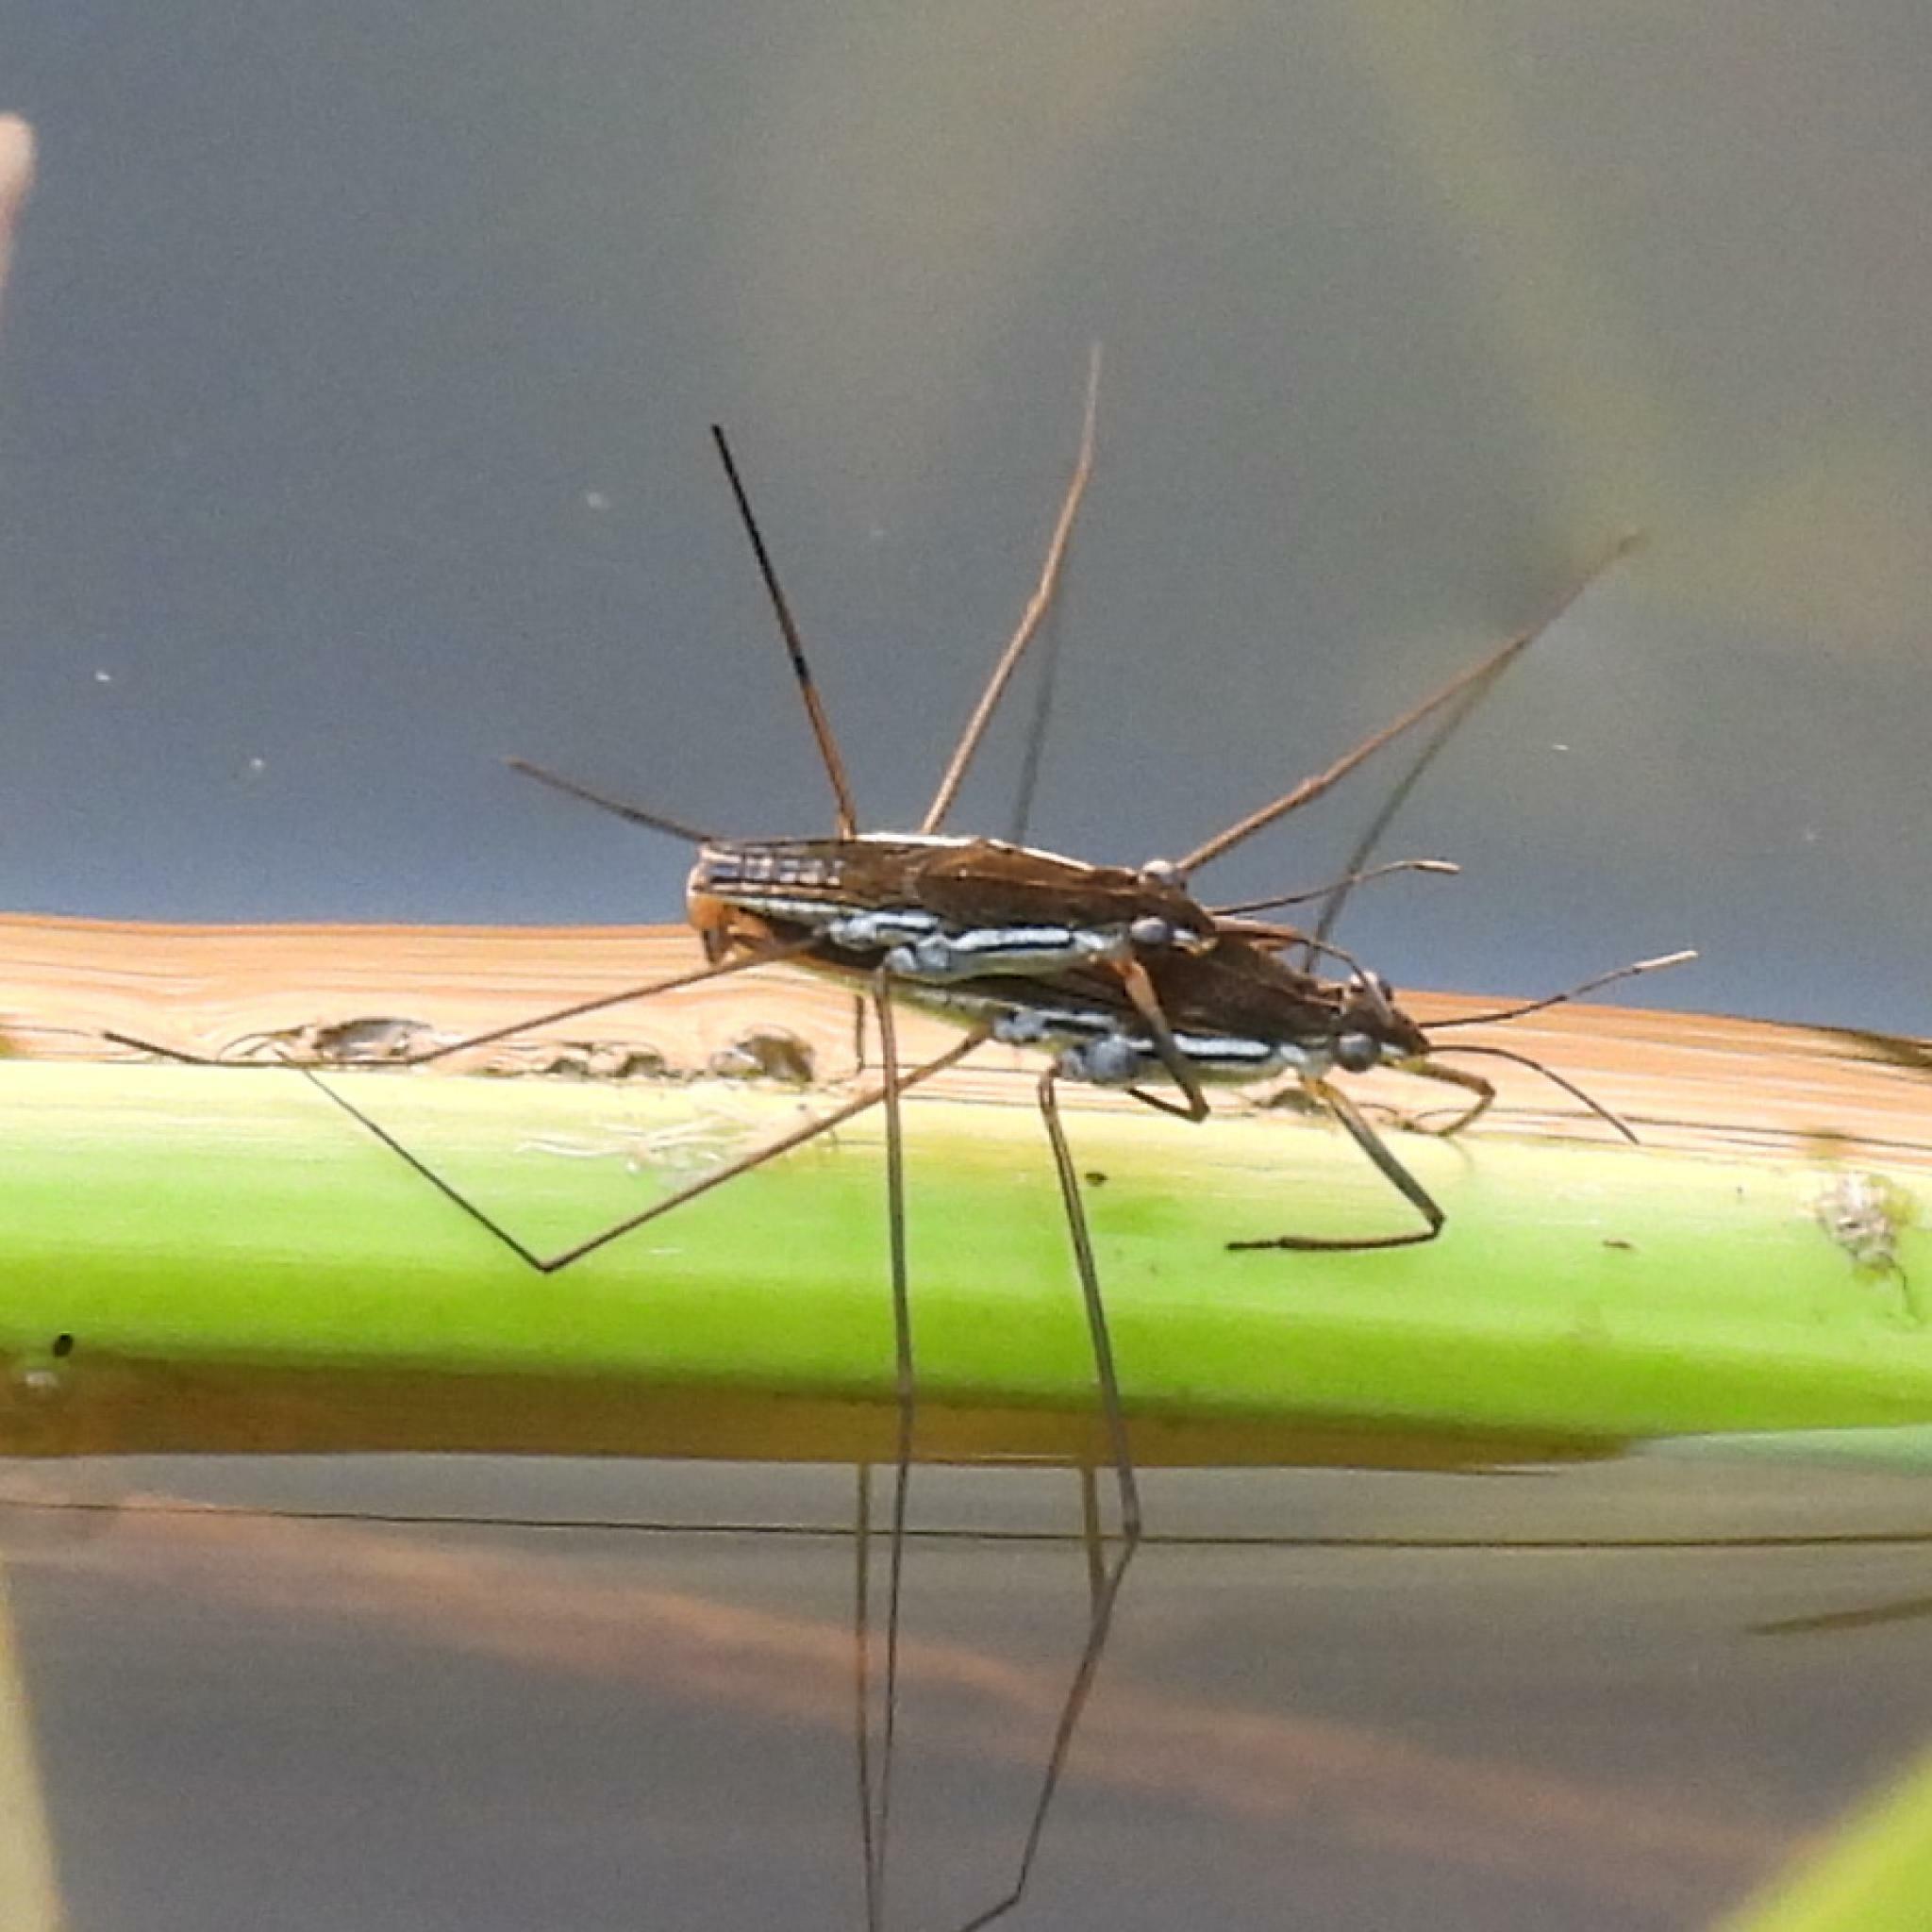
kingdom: Animalia
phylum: Arthropoda
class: Insecta
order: Hemiptera
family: Gerridae
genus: Gerris
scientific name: Gerris swakopensis
